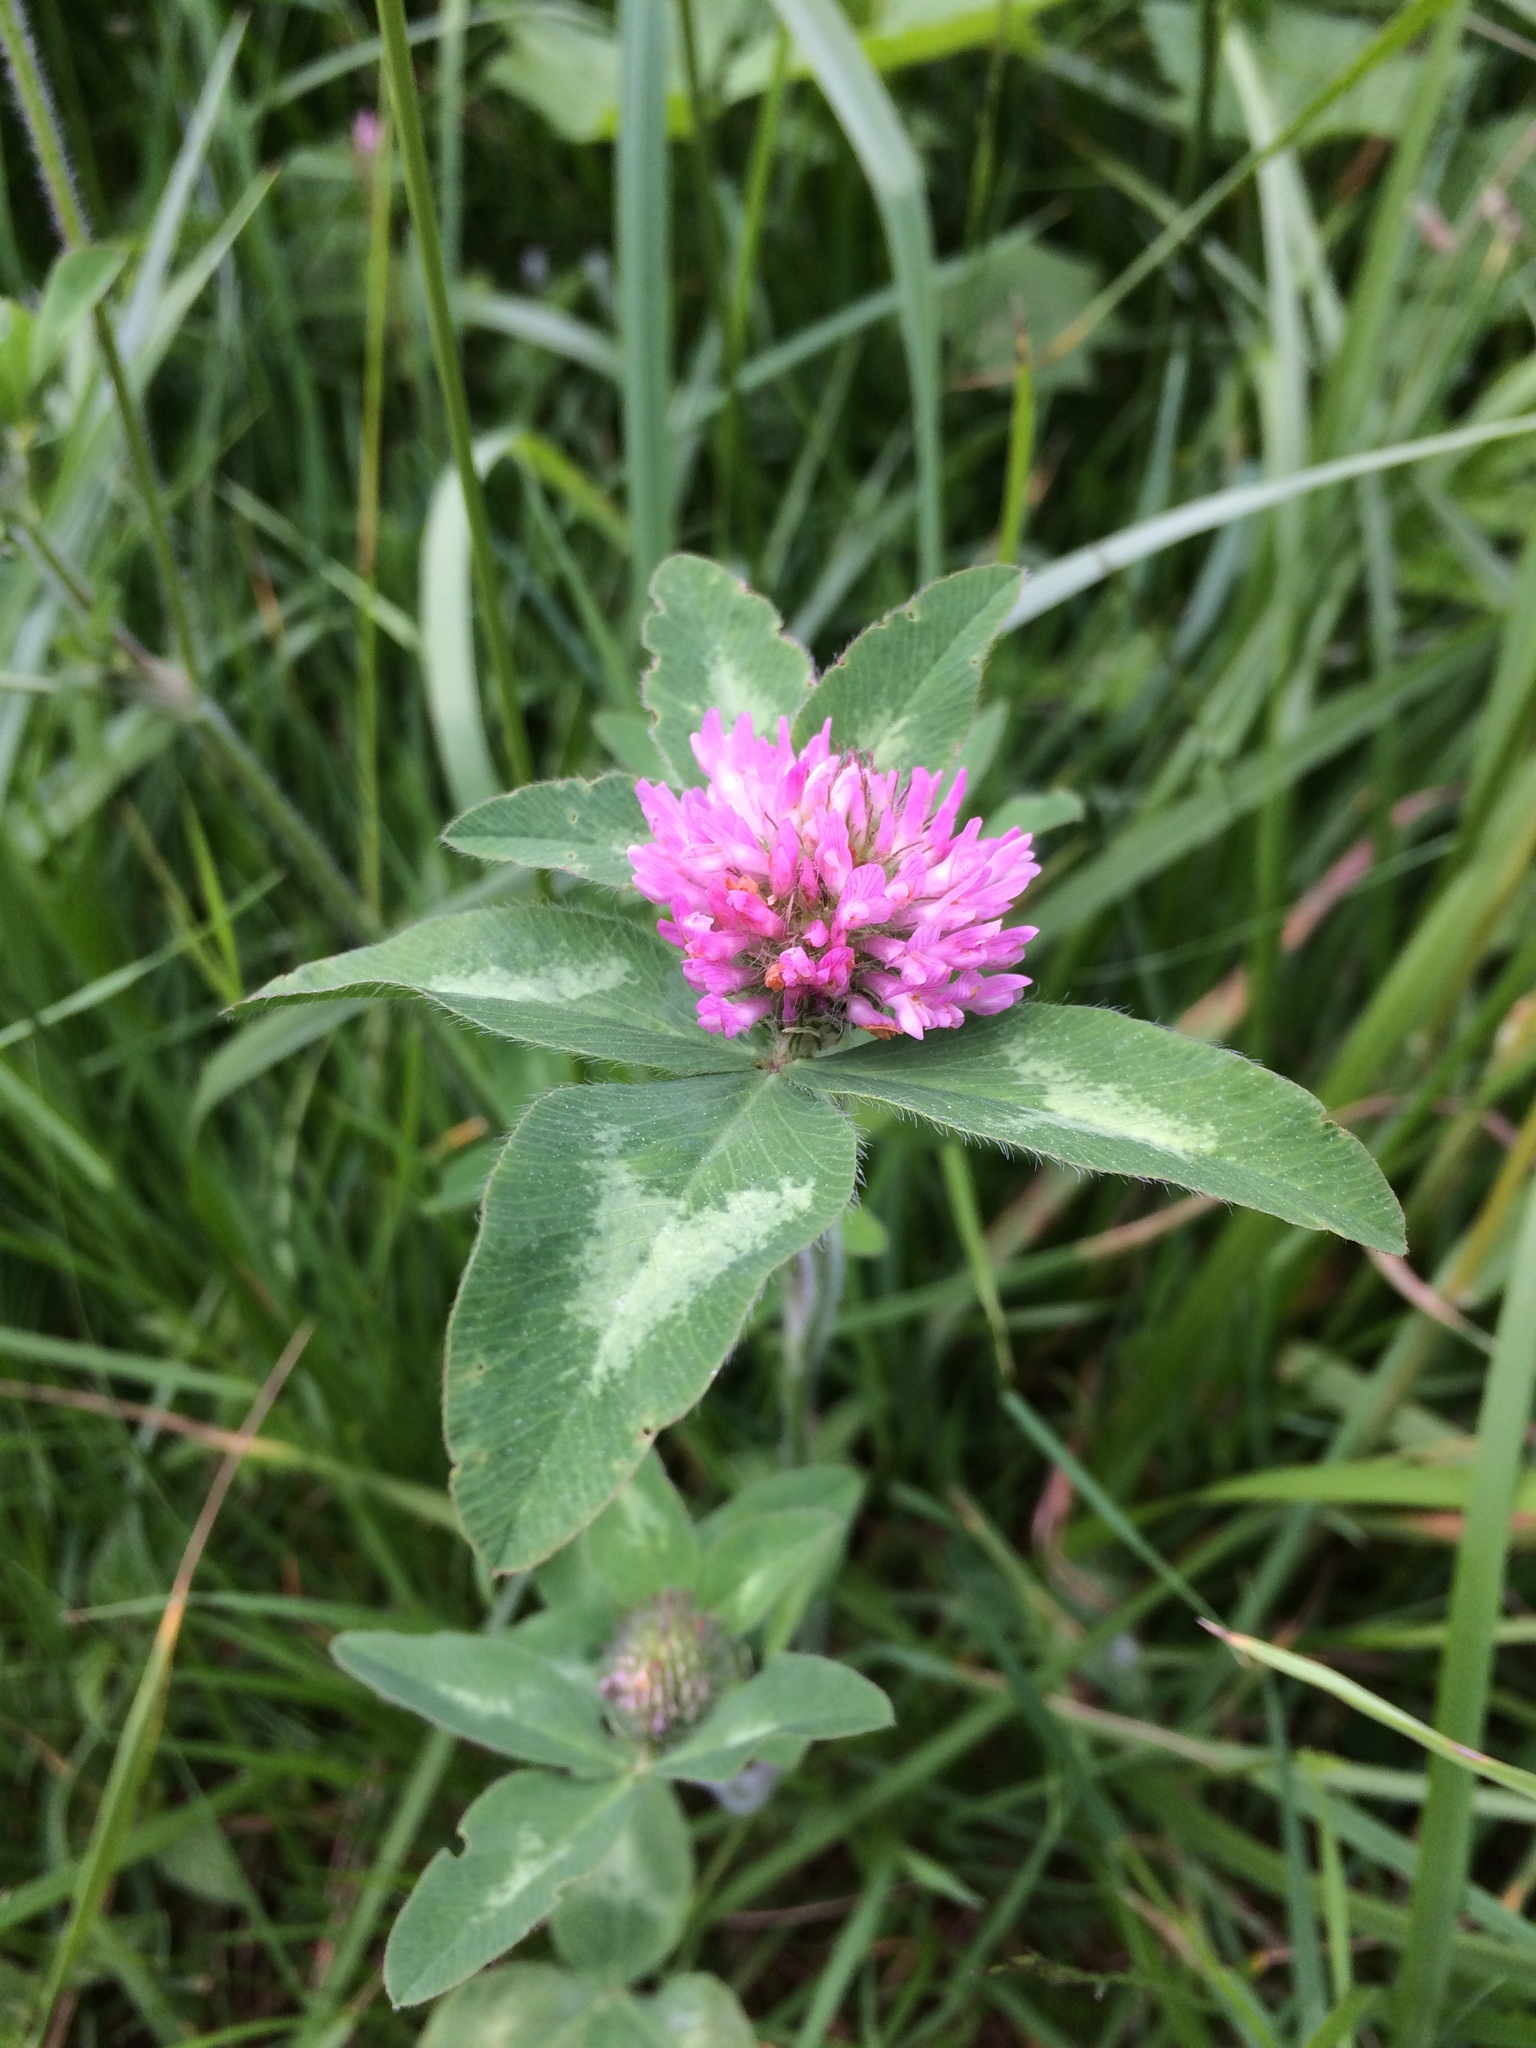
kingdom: Plantae
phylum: Tracheophyta
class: Magnoliopsida
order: Fabales
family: Fabaceae
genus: Trifolium
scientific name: Trifolium pratense
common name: Red clover
